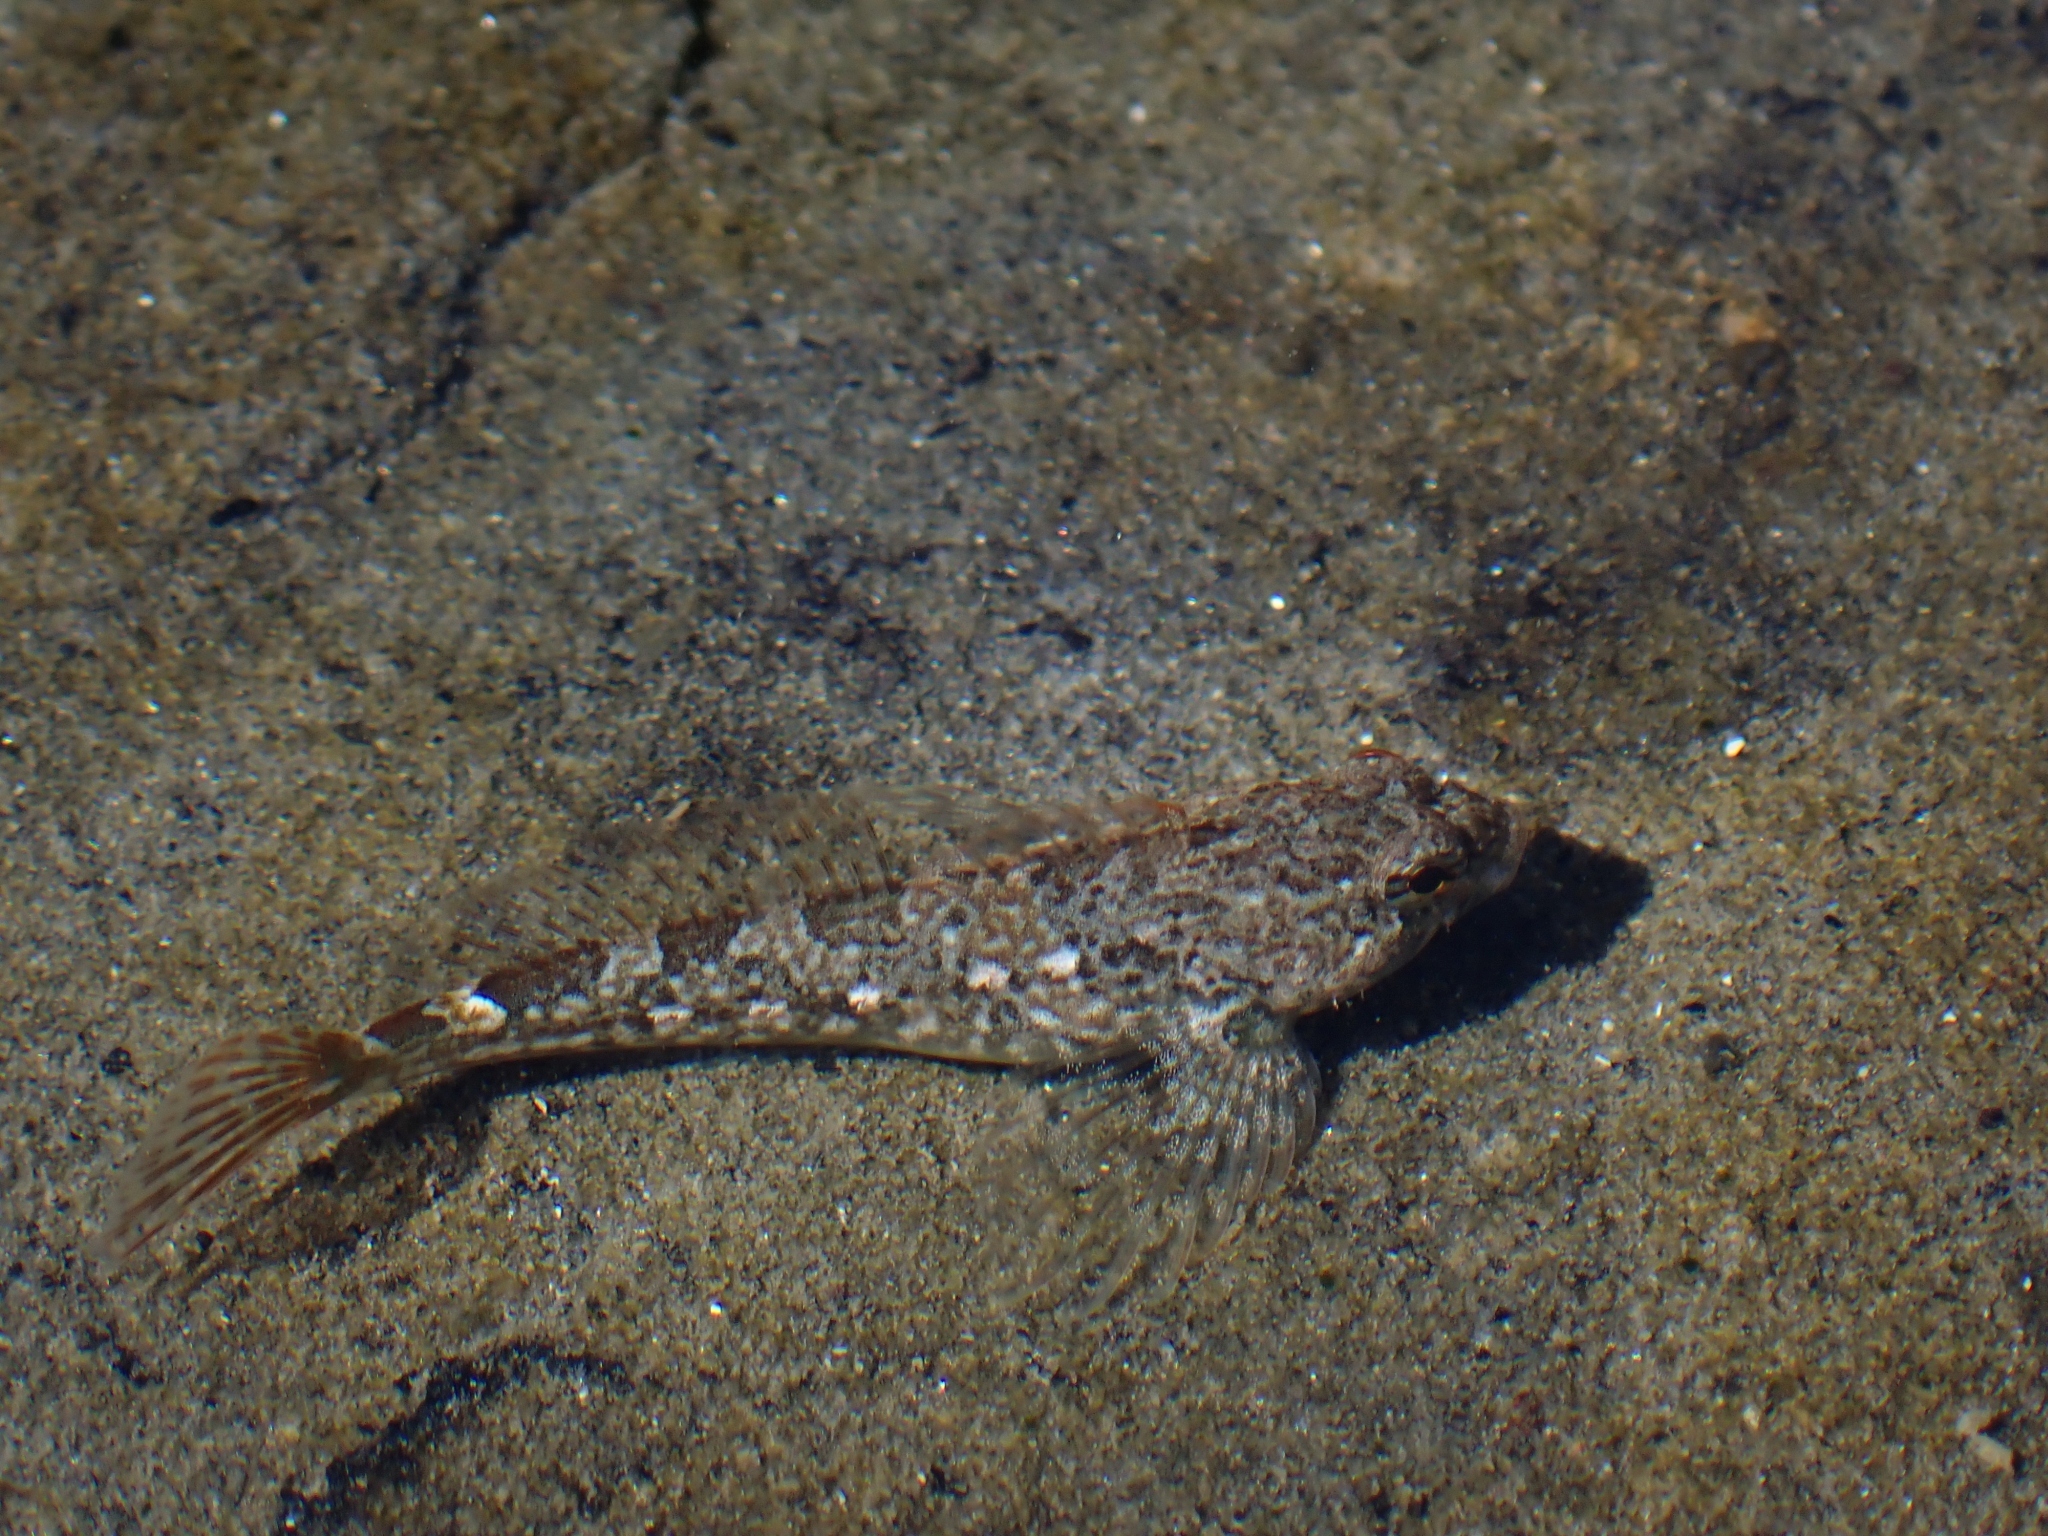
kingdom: Animalia
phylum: Chordata
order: Scorpaeniformes
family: Cottidae
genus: Oligocottus
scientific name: Oligocottus maculosus
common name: Tidepool sculpin
